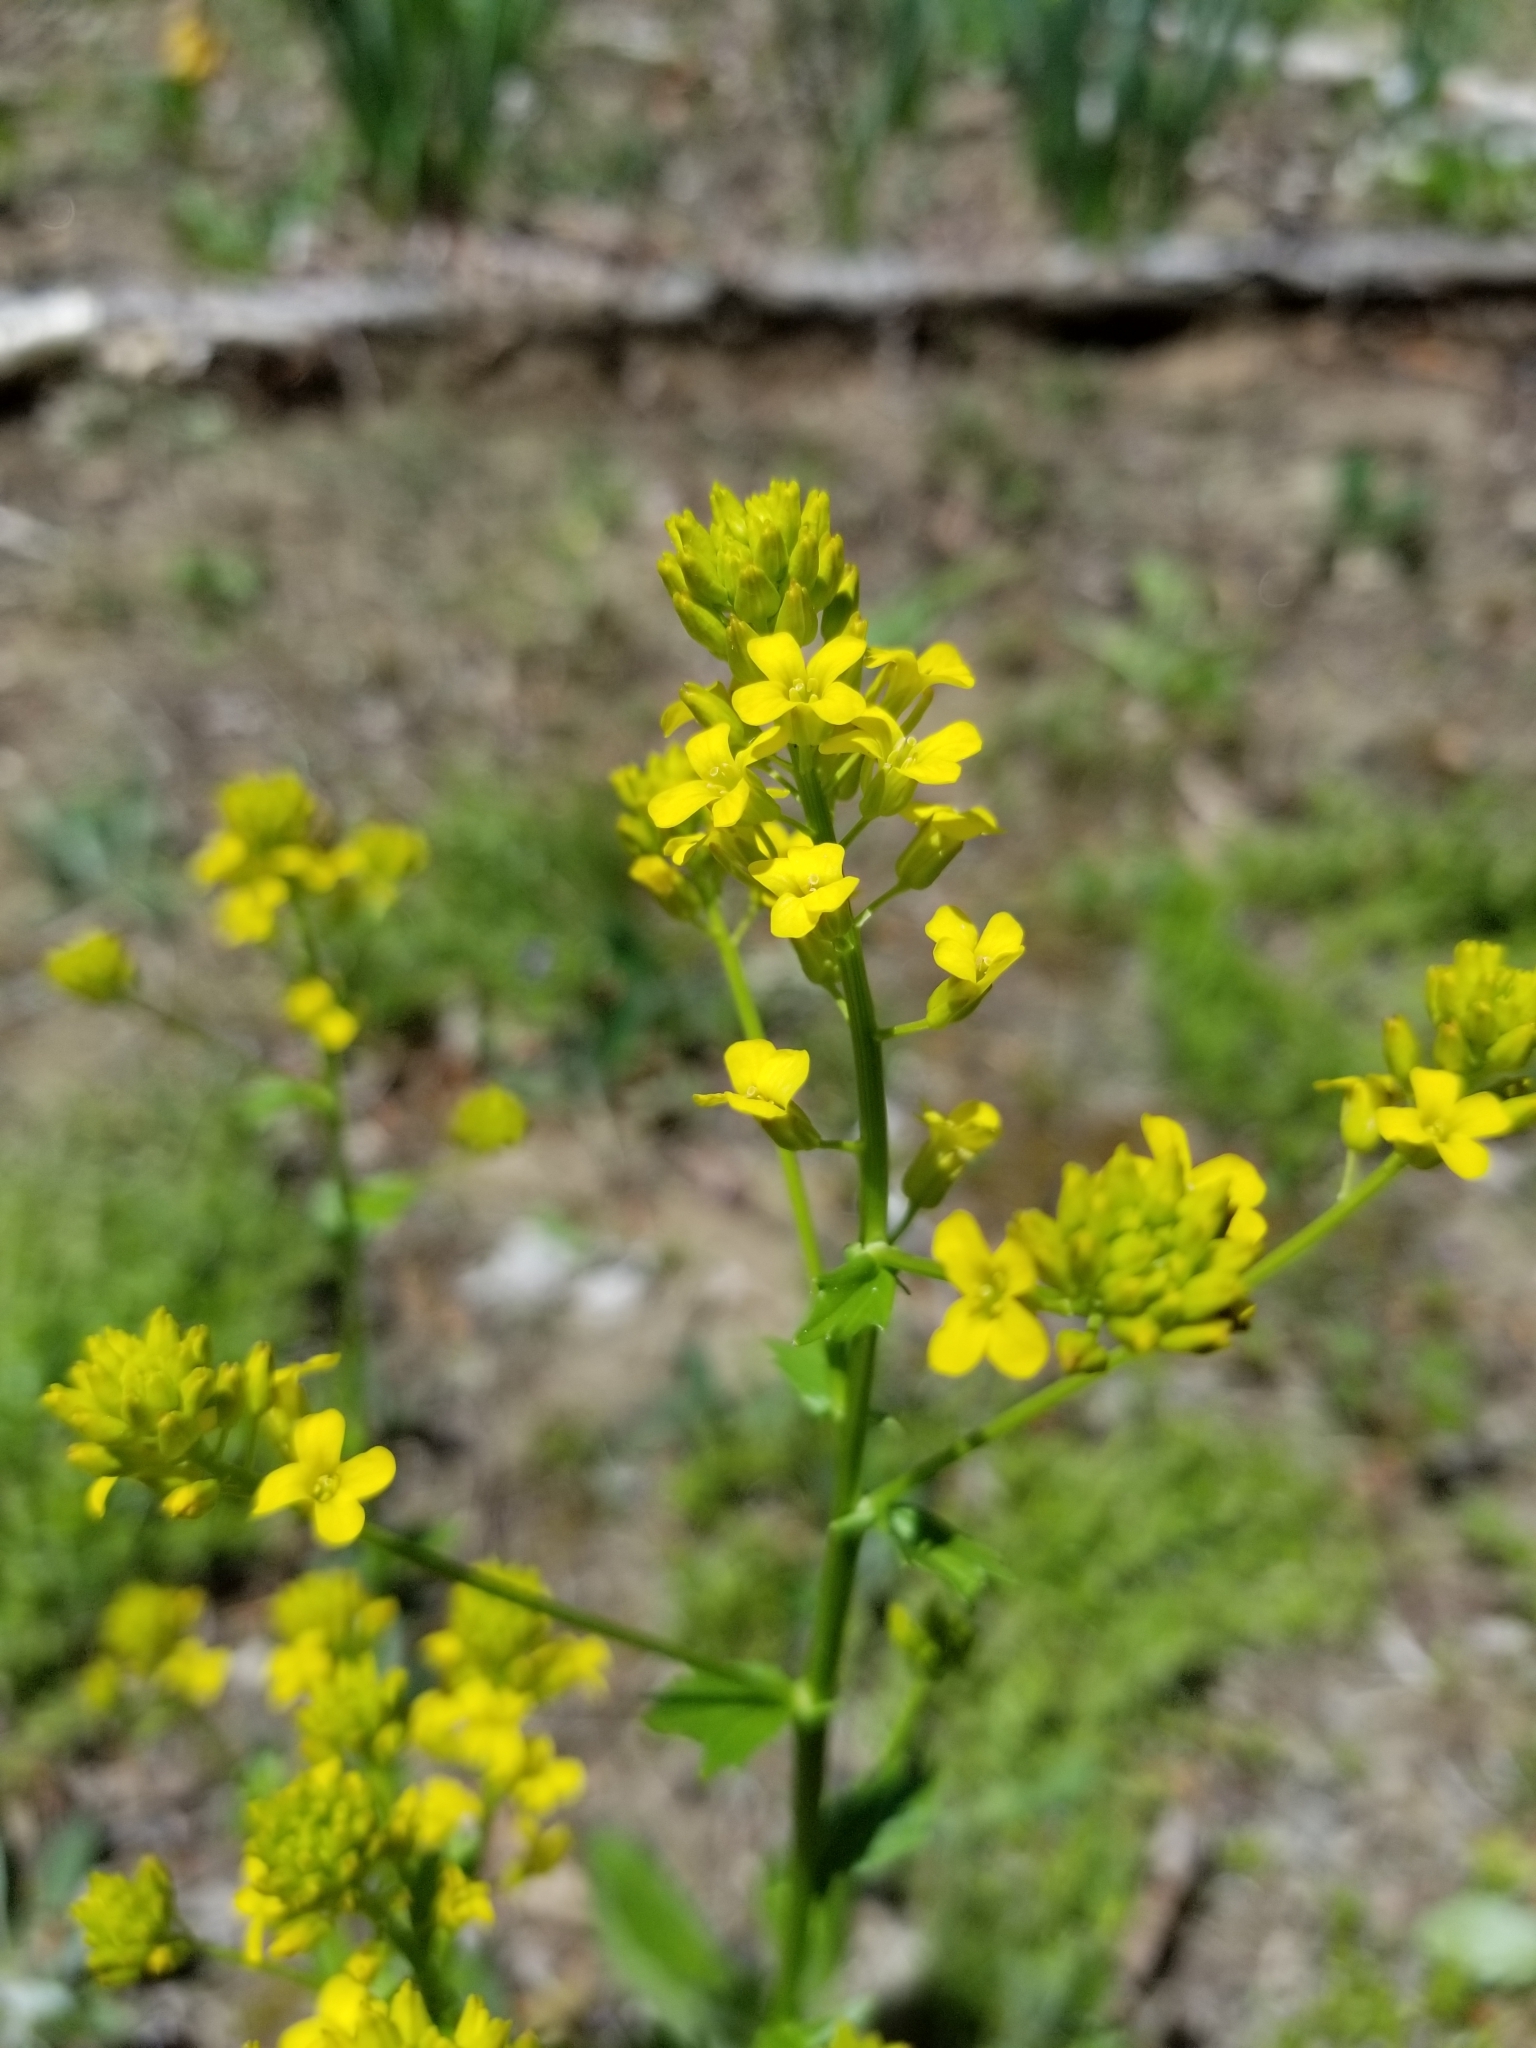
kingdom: Plantae
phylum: Tracheophyta
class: Magnoliopsida
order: Brassicales
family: Brassicaceae
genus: Barbarea
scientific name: Barbarea vulgaris
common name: Cressy-greens
